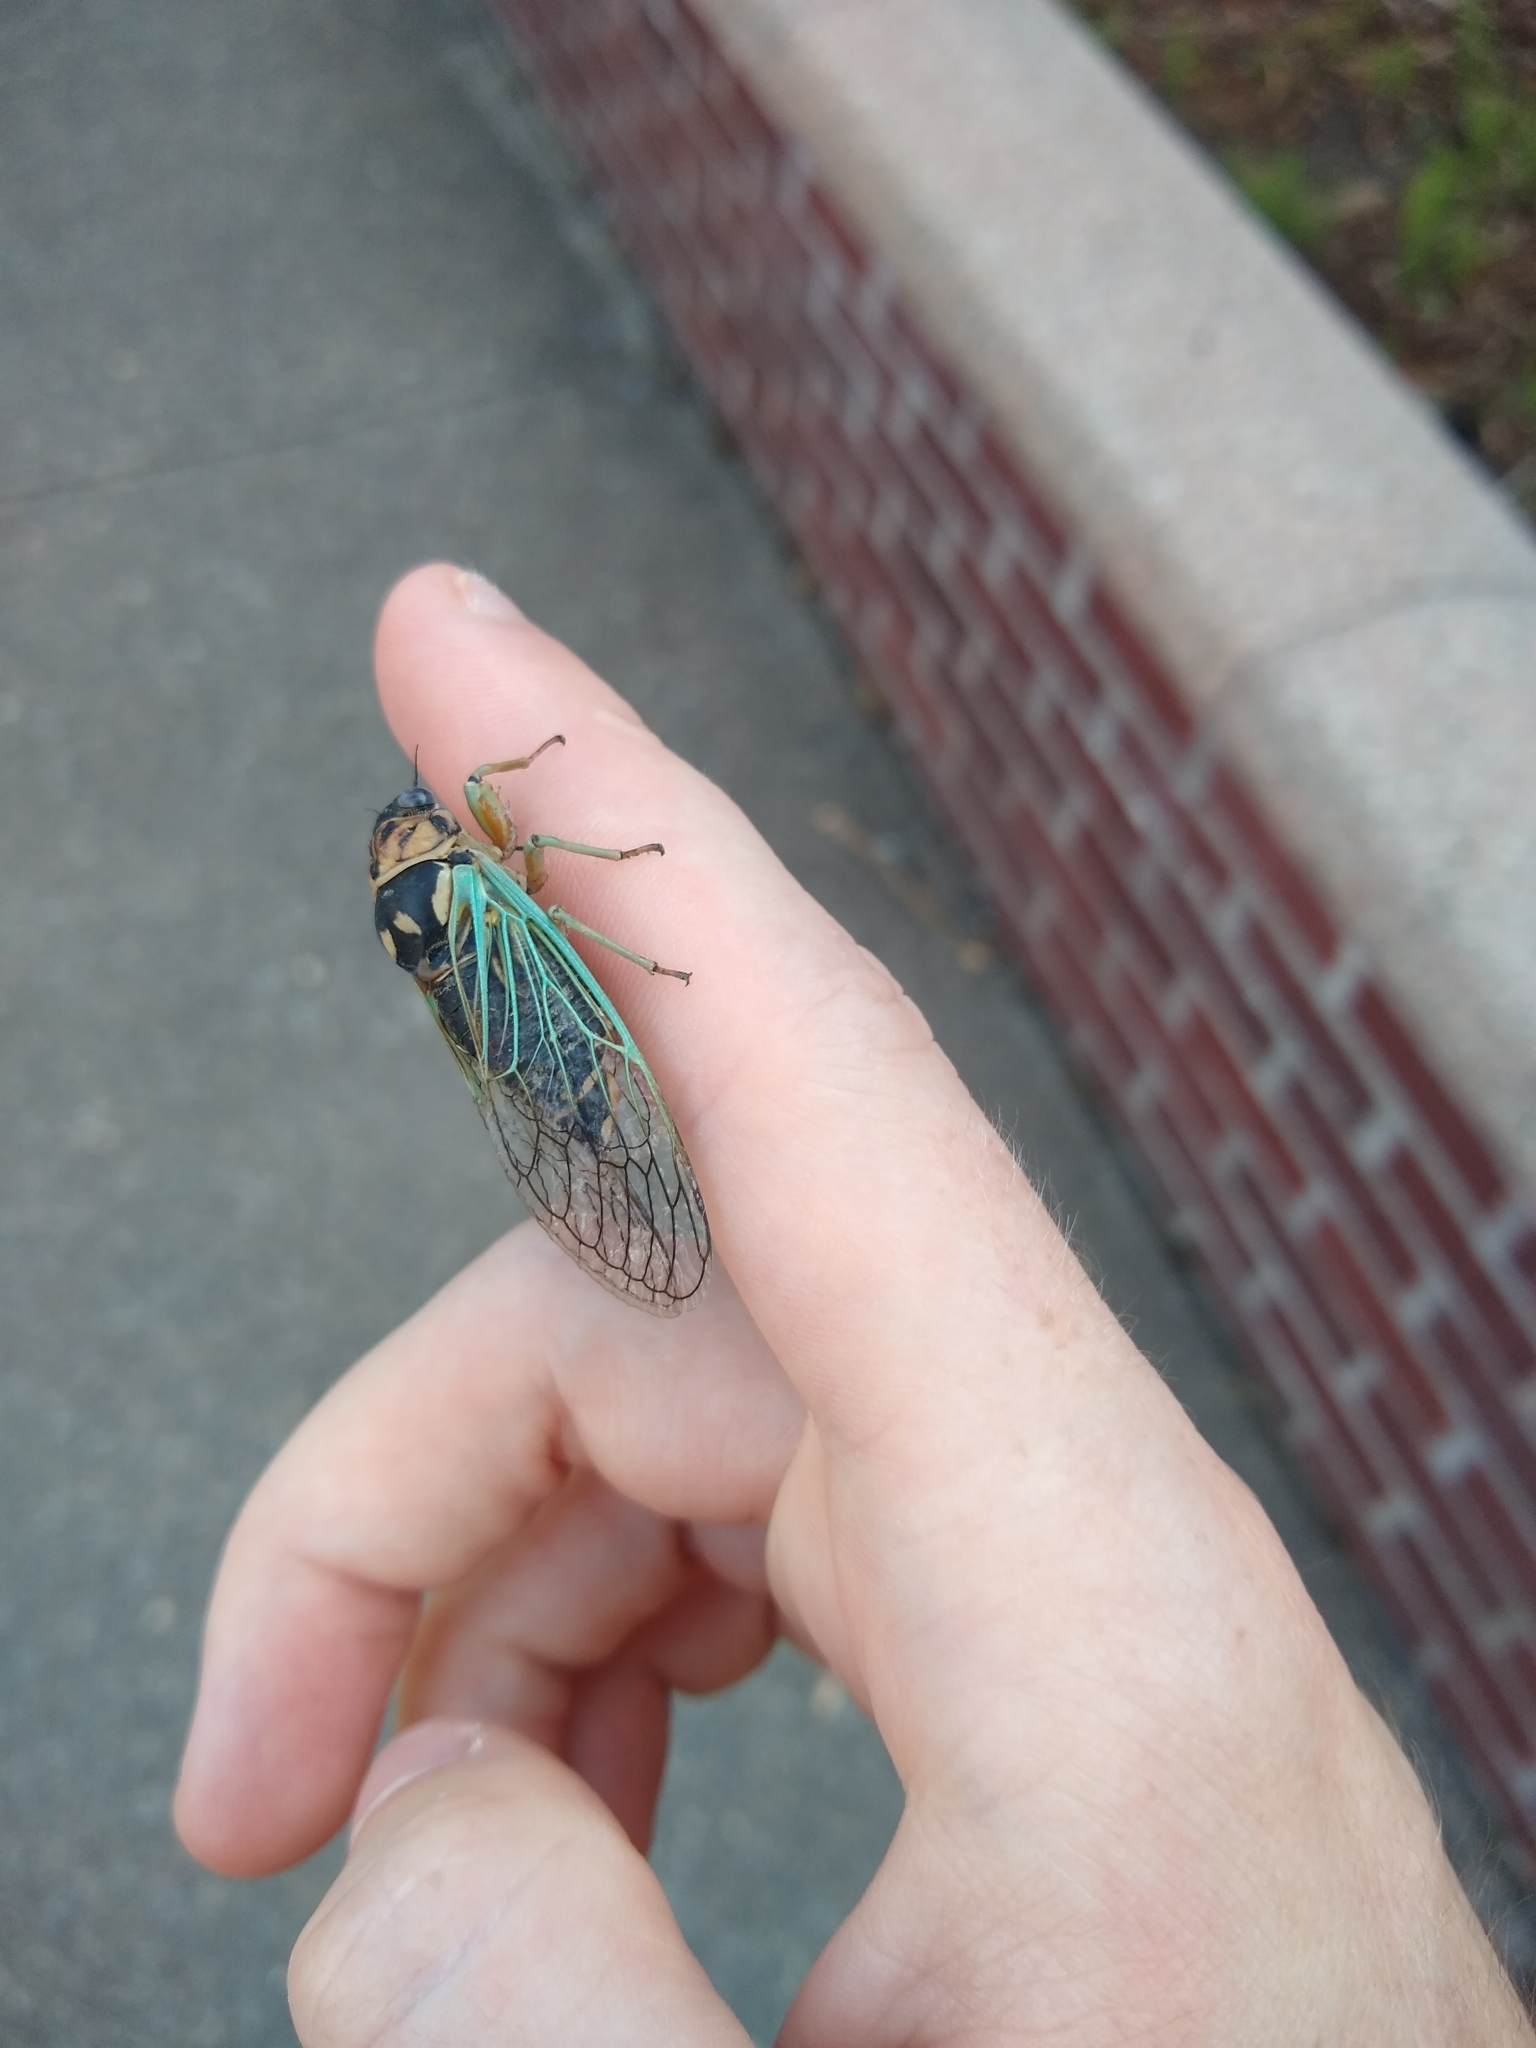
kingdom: Animalia
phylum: Arthropoda
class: Insecta
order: Hemiptera
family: Cicadidae
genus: Okanagana
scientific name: Okanagana vandykei
